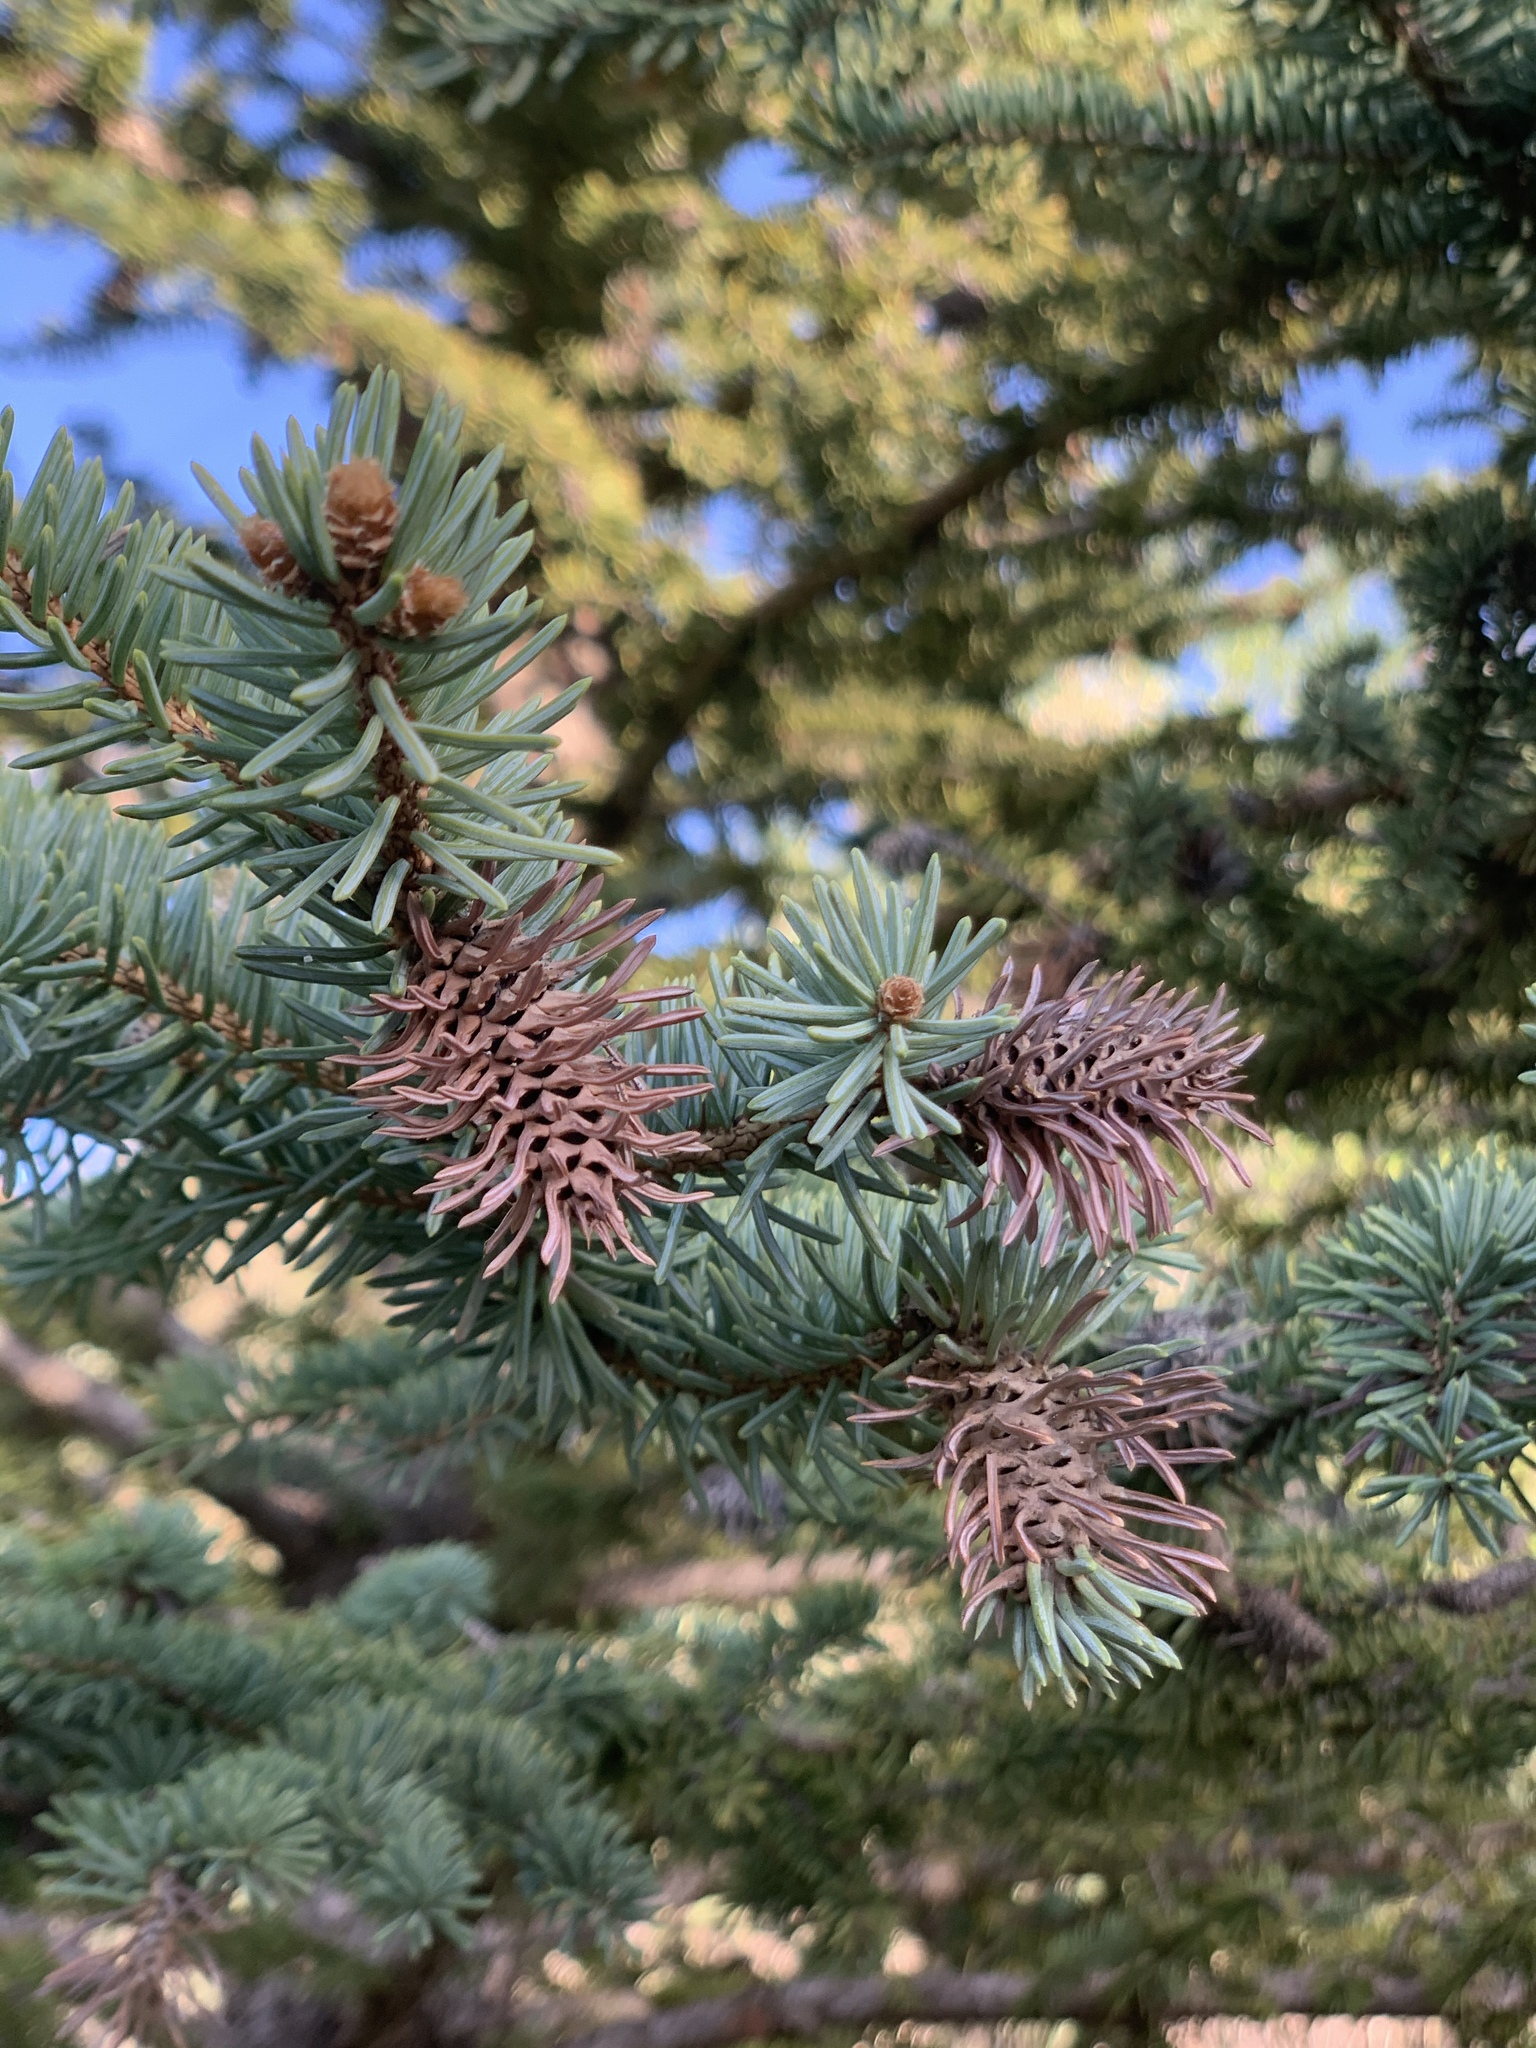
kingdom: Animalia
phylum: Arthropoda
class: Insecta
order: Hemiptera
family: Adelgidae
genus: Adelges
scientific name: Adelges cooleyi
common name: Cooley spruce gall adelgid
